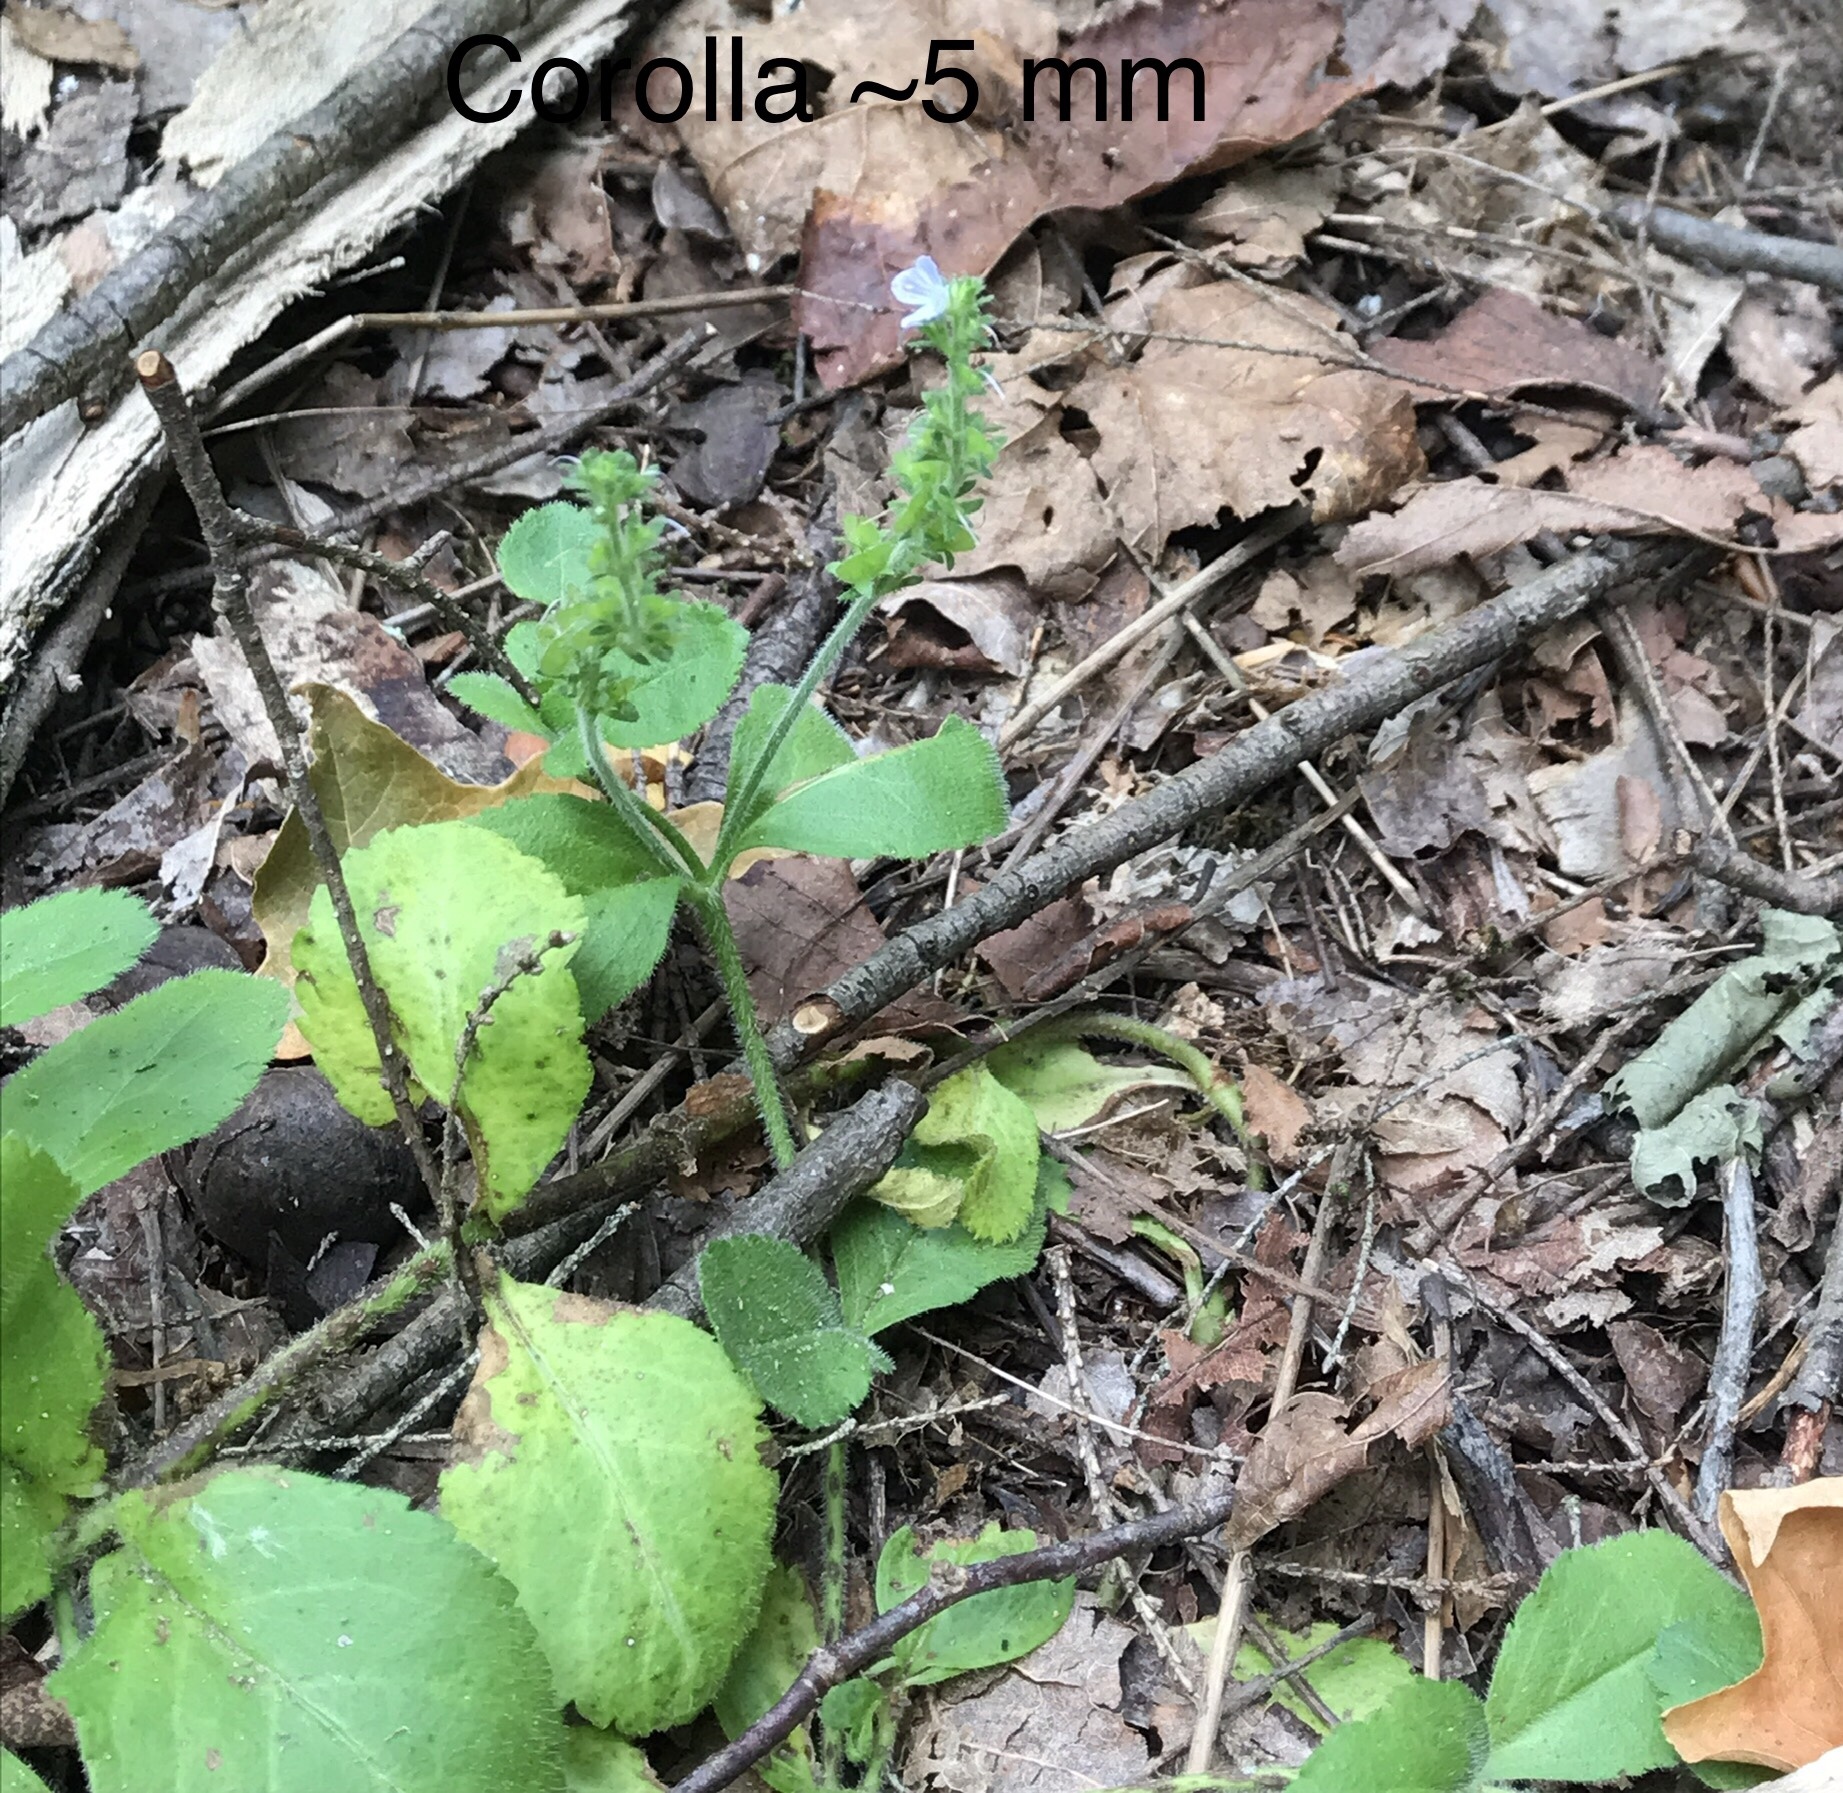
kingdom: Plantae
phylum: Tracheophyta
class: Magnoliopsida
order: Lamiales
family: Plantaginaceae
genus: Veronica
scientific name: Veronica officinalis
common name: Common speedwell
